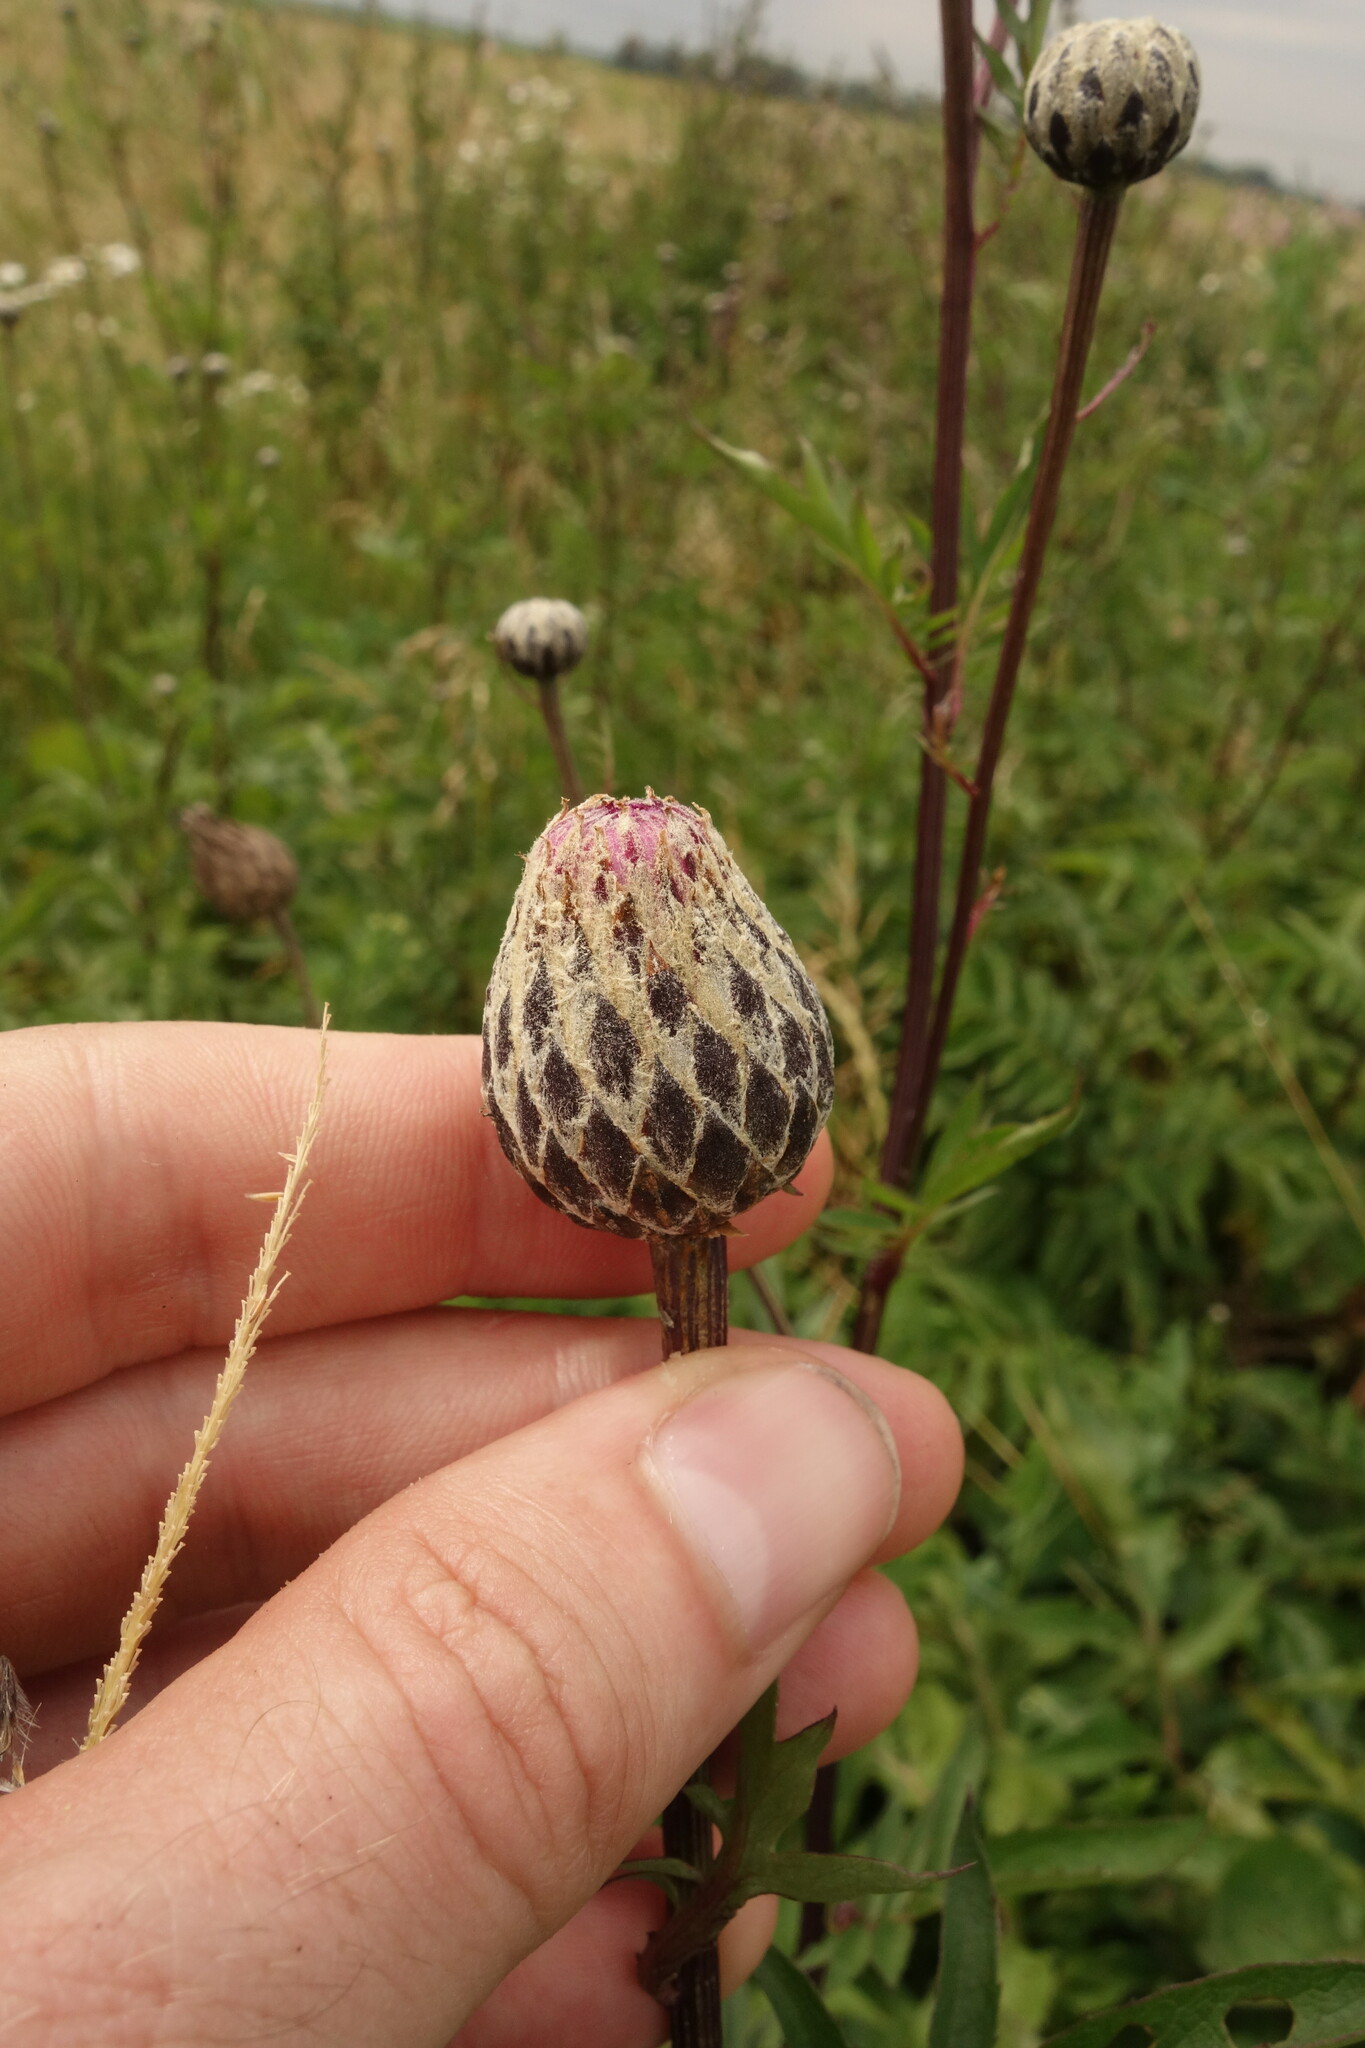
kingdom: Plantae
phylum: Tracheophyta
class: Magnoliopsida
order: Asterales
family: Asteraceae
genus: Serratula
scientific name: Serratula coronata
